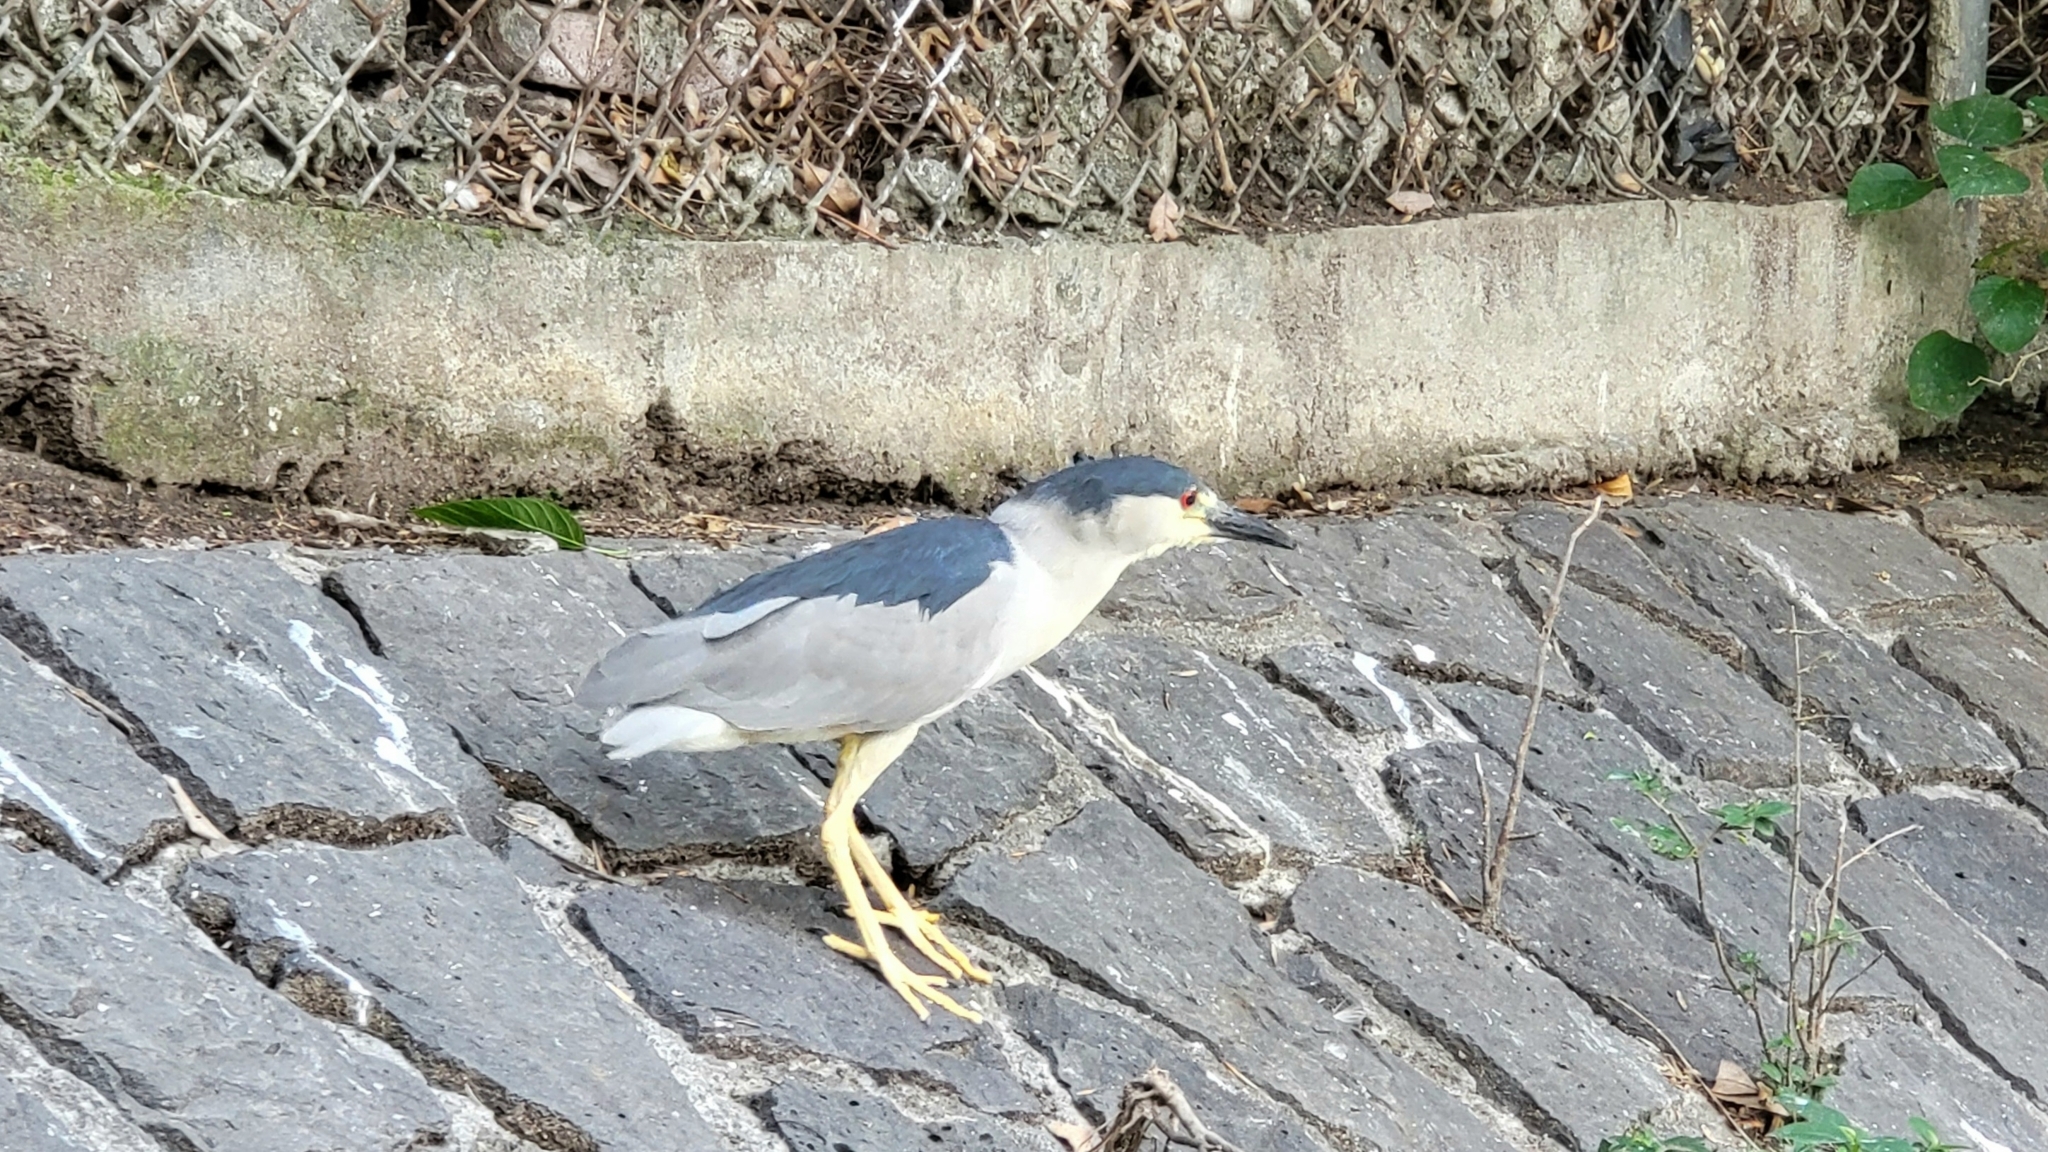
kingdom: Animalia
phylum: Chordata
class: Aves
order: Pelecaniformes
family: Ardeidae
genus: Nycticorax
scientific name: Nycticorax nycticorax
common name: Black-crowned night heron
